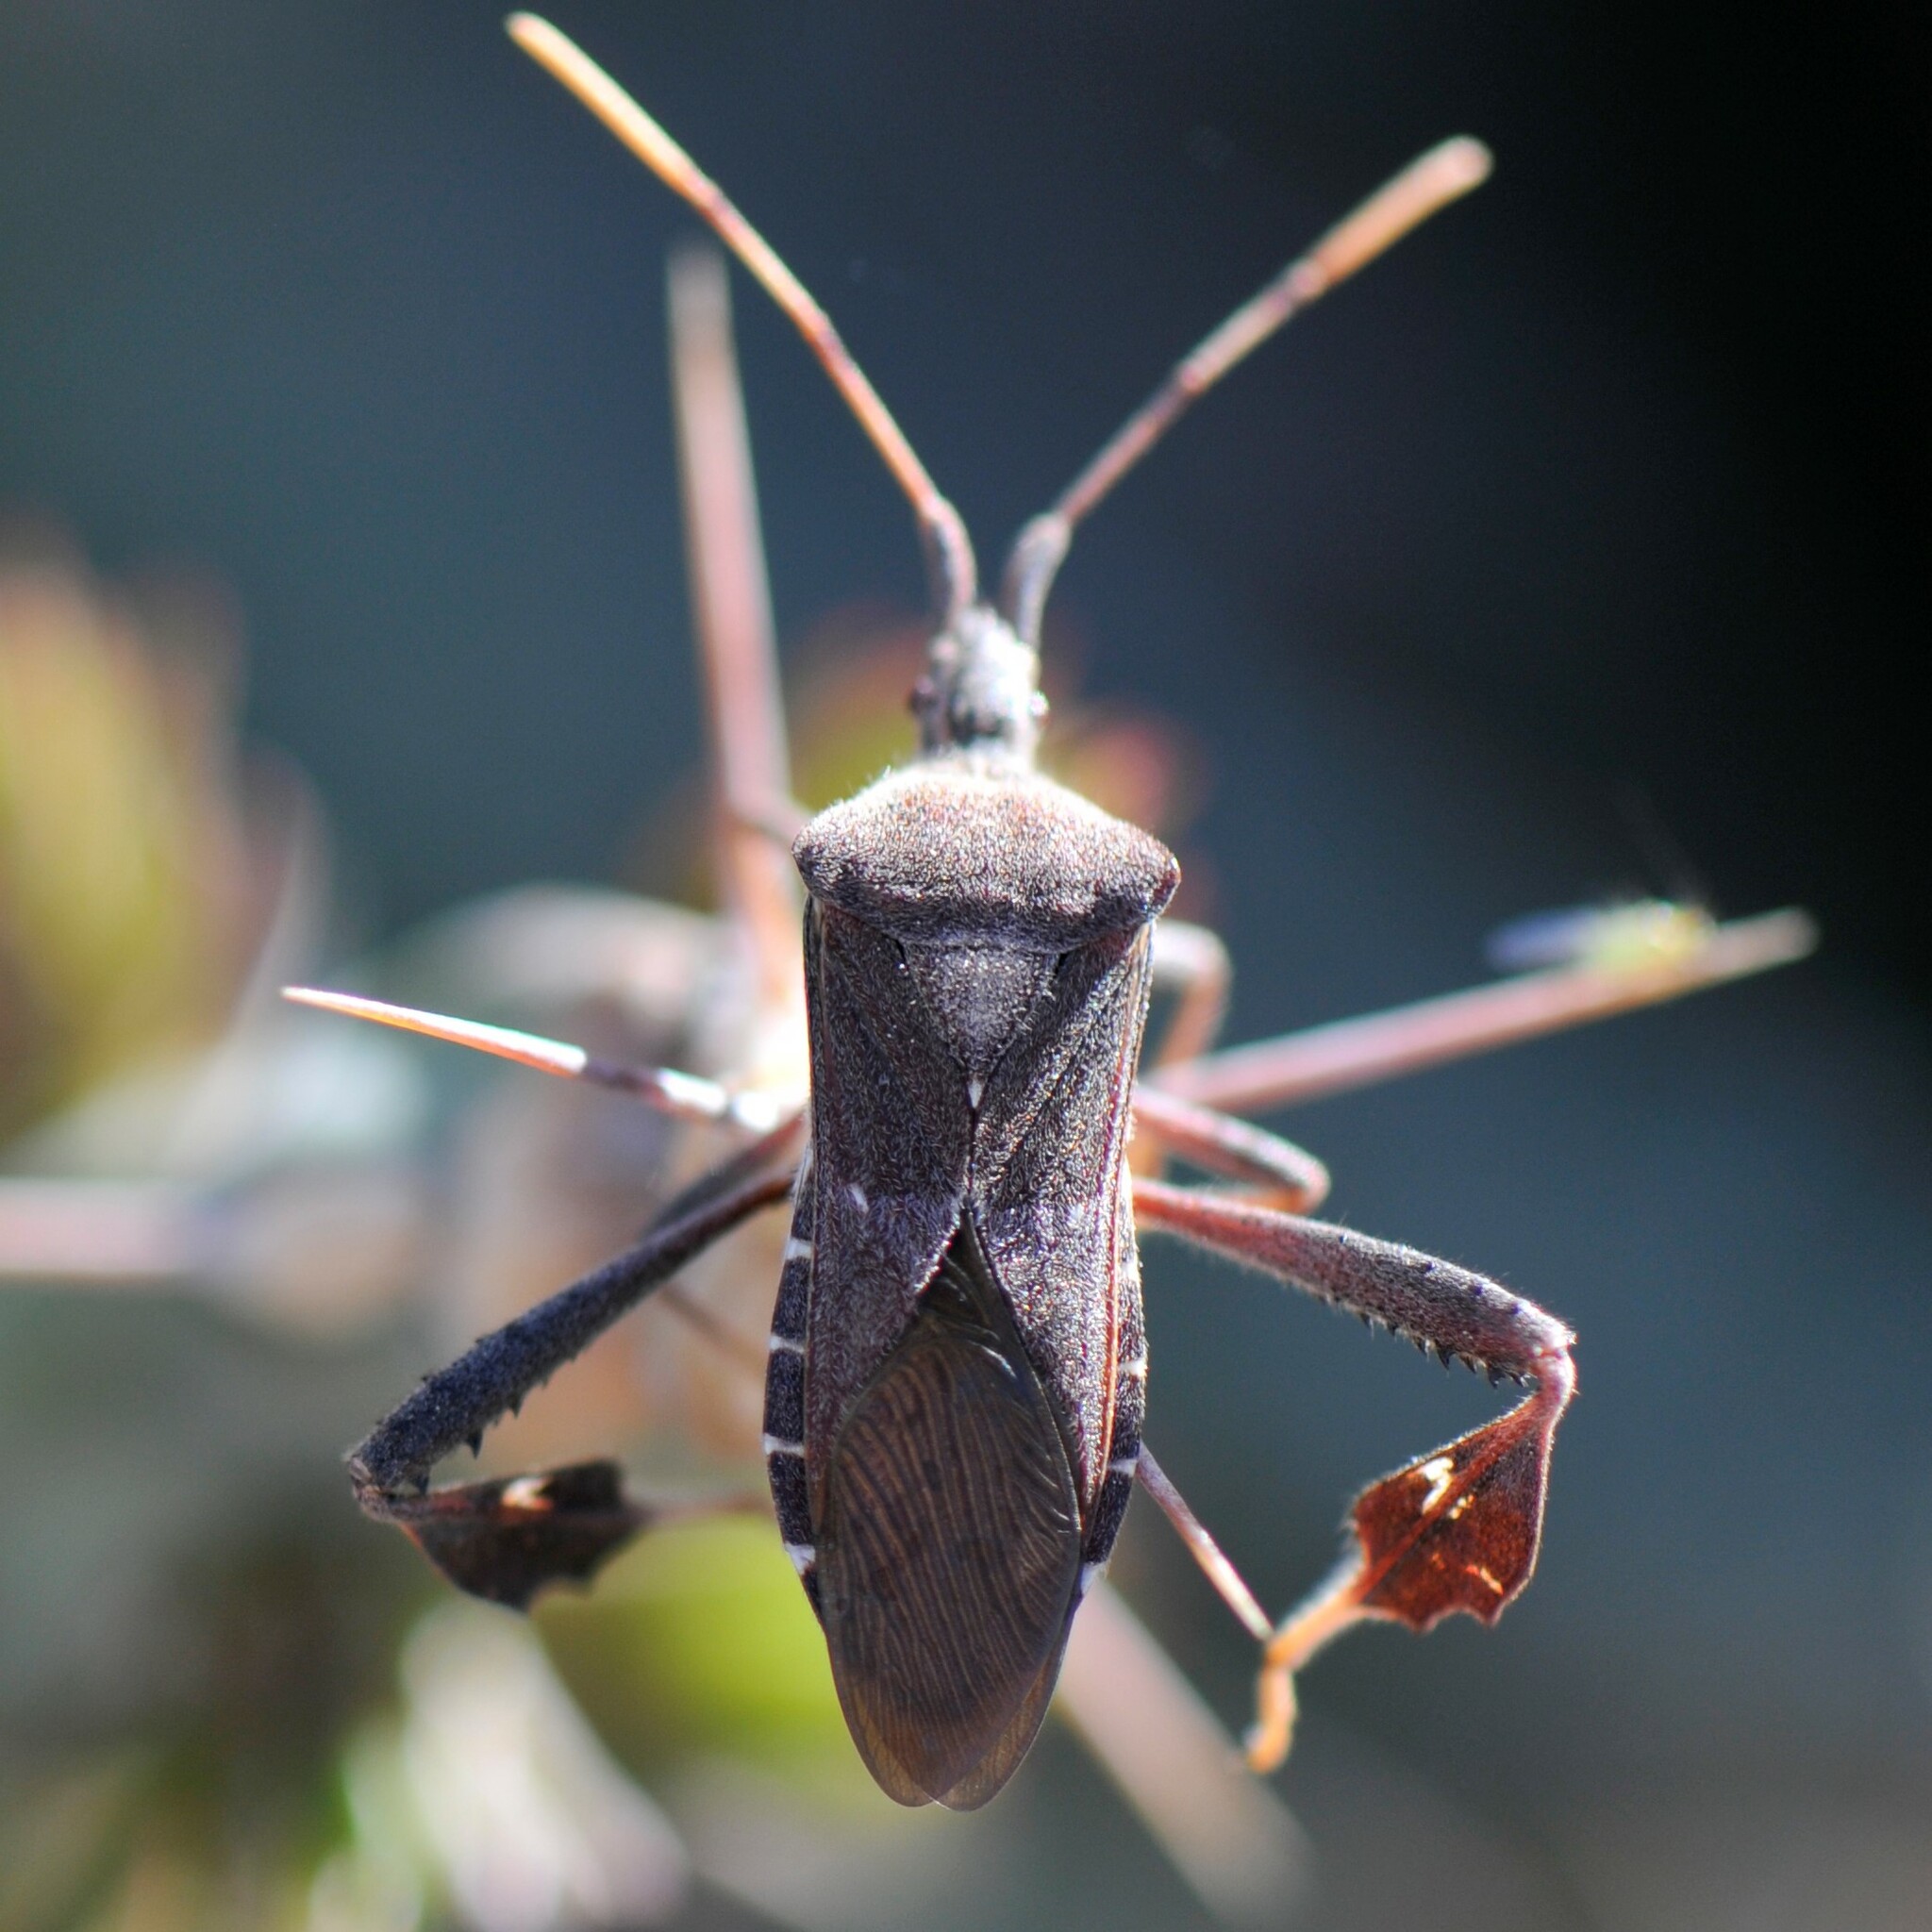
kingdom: Animalia
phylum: Arthropoda
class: Insecta
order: Hemiptera
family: Coreidae
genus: Leptoglossus
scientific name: Leptoglossus oppositus
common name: Northern leaf-footed bug
